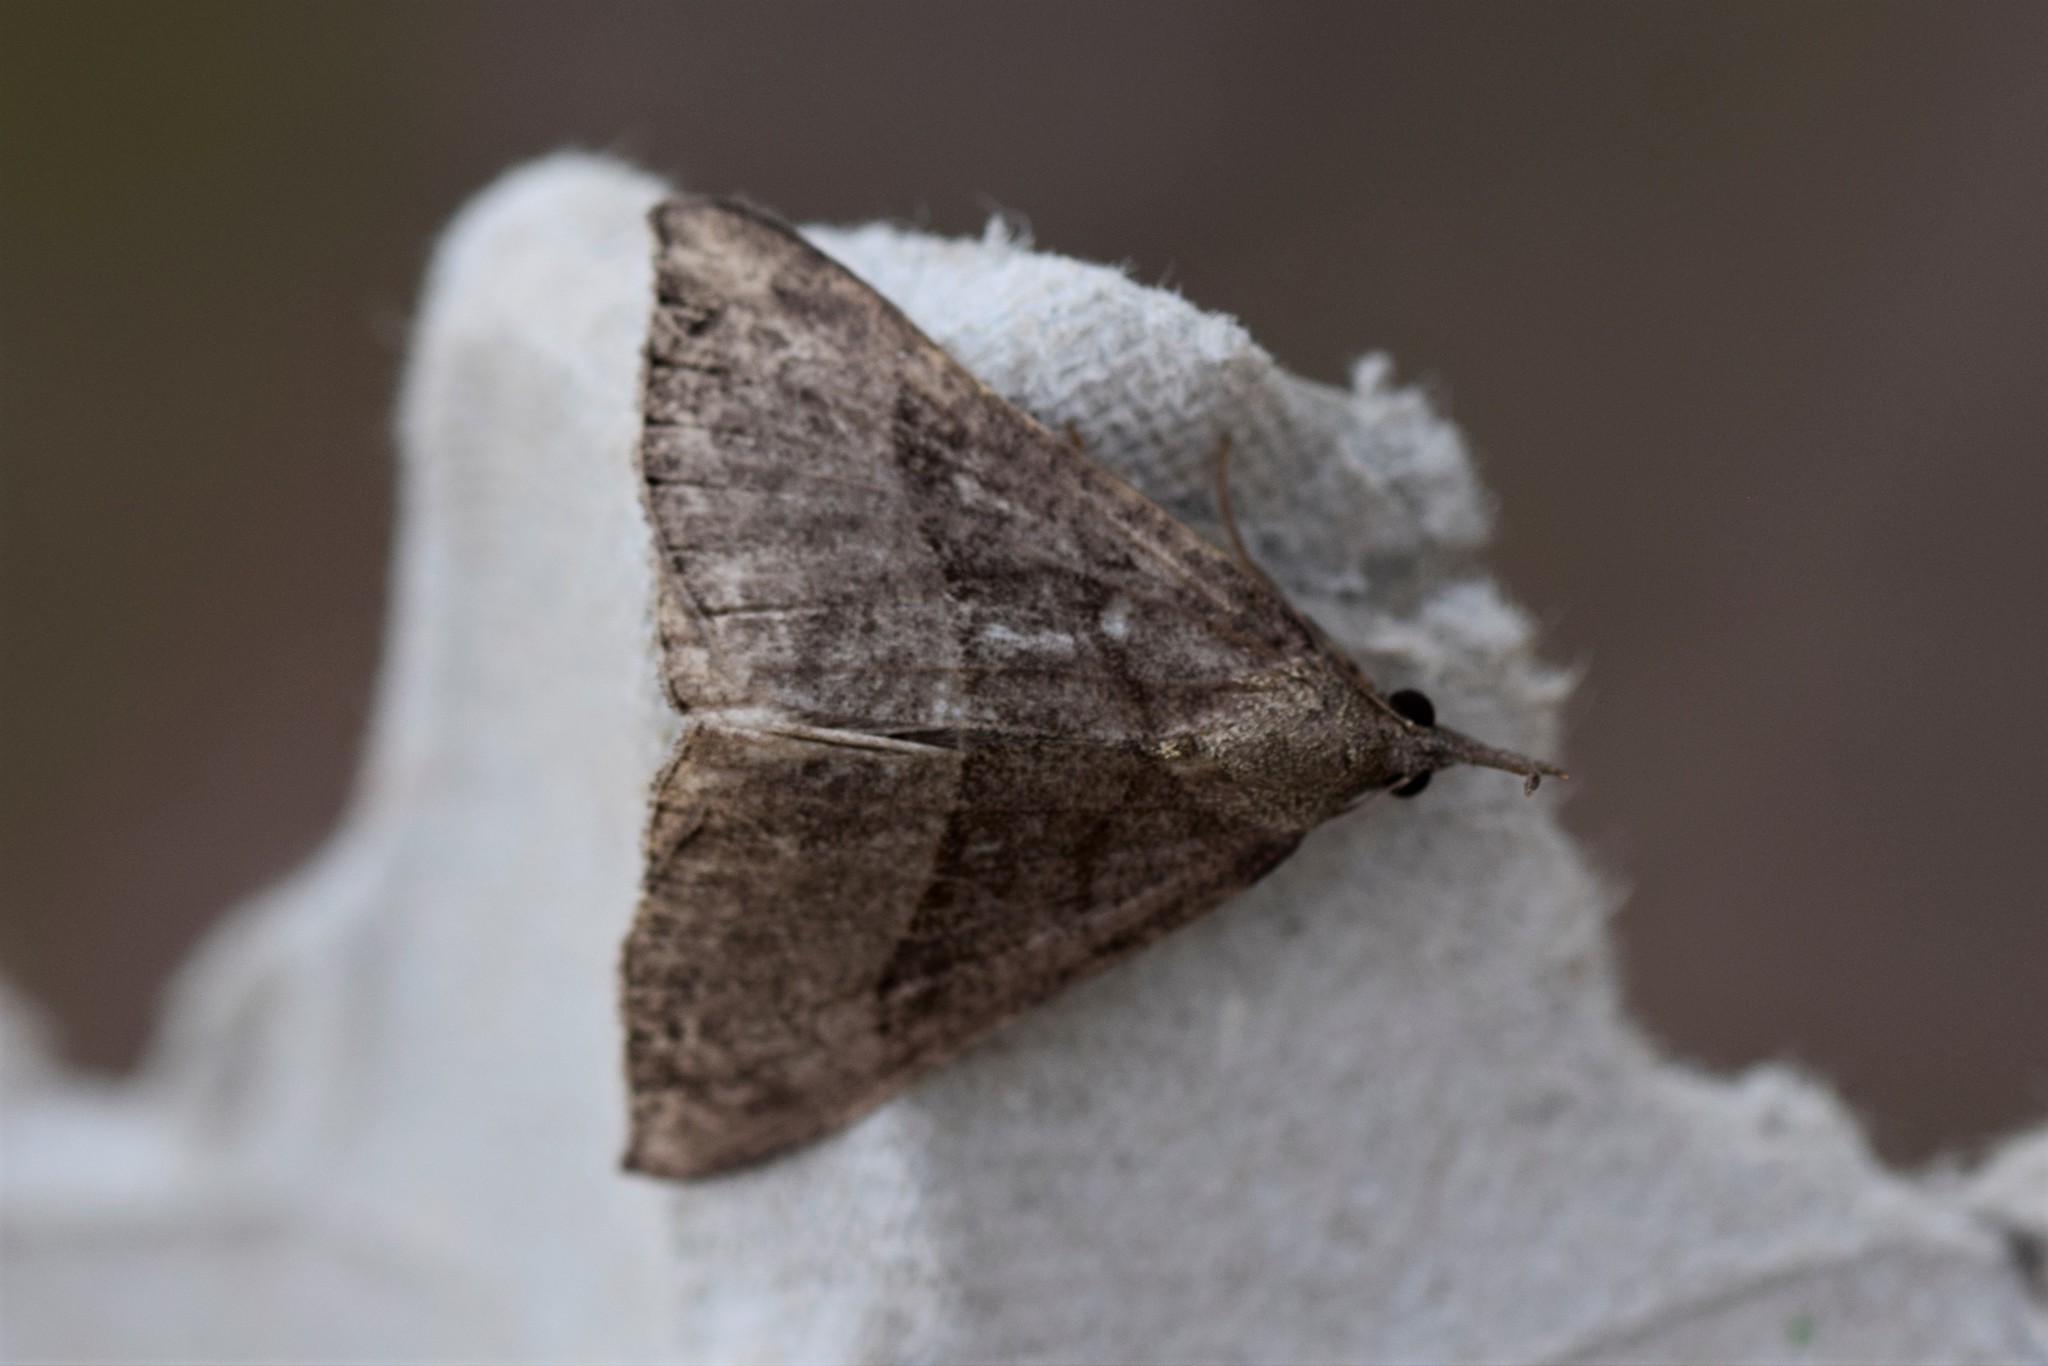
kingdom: Animalia
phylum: Arthropoda
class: Insecta
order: Lepidoptera
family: Erebidae
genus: Hypena
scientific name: Hypena proboscidalis
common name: Snout
